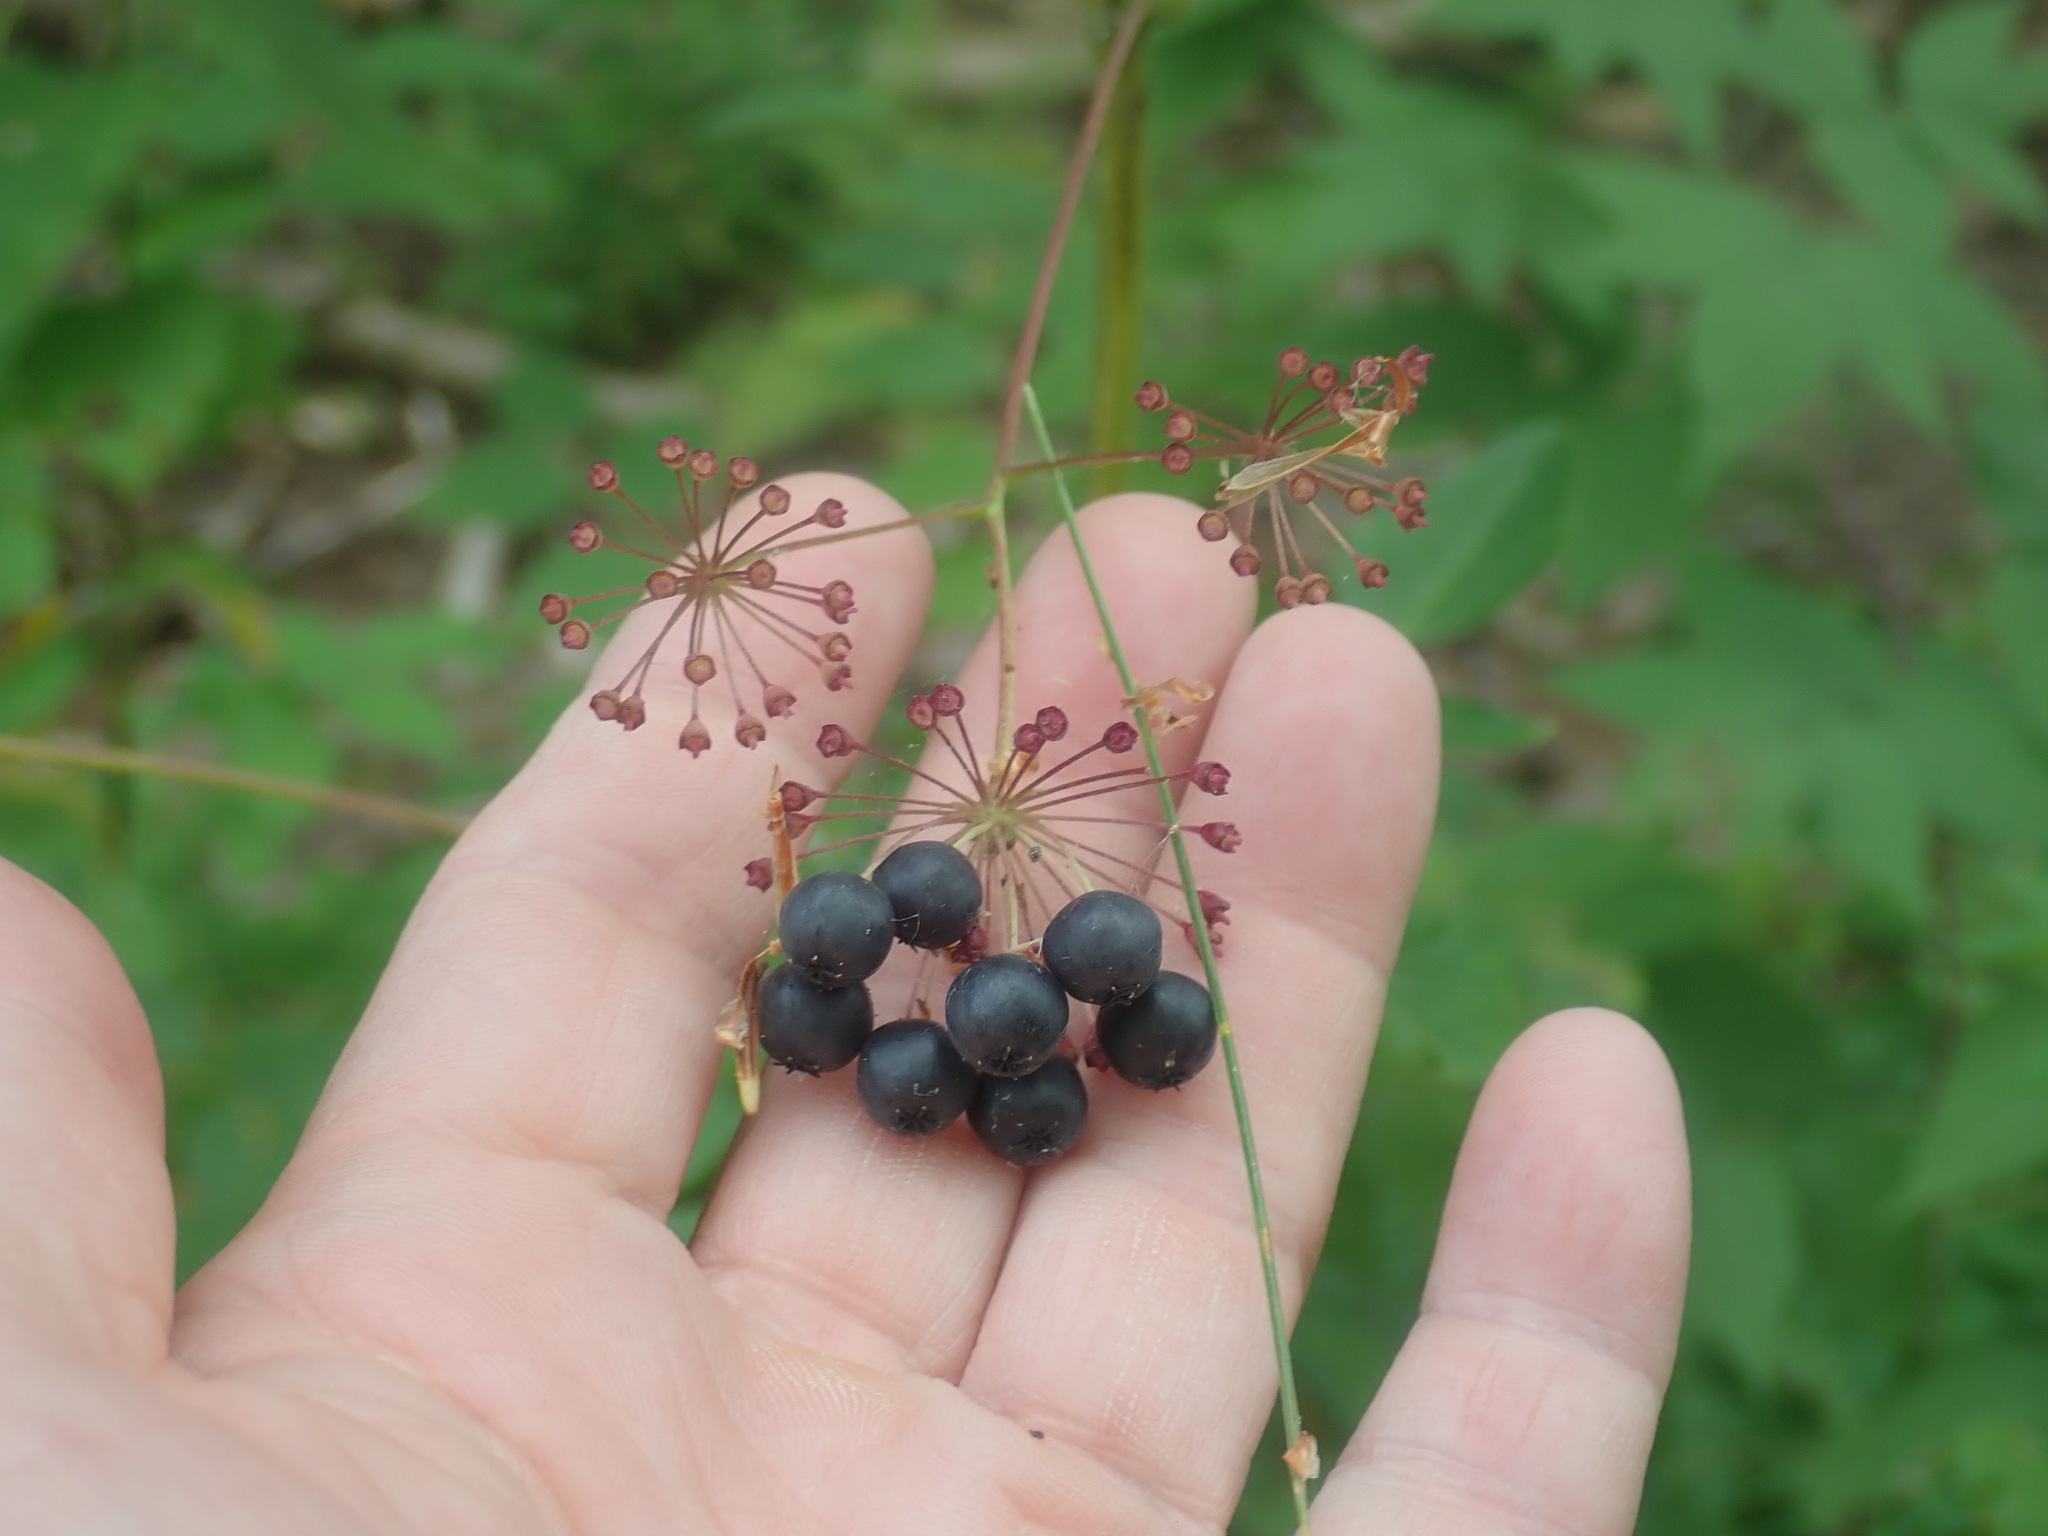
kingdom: Plantae
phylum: Tracheophyta
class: Magnoliopsida
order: Apiales
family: Araliaceae
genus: Aralia
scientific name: Aralia hispida
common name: Bristly sarsaparilla
